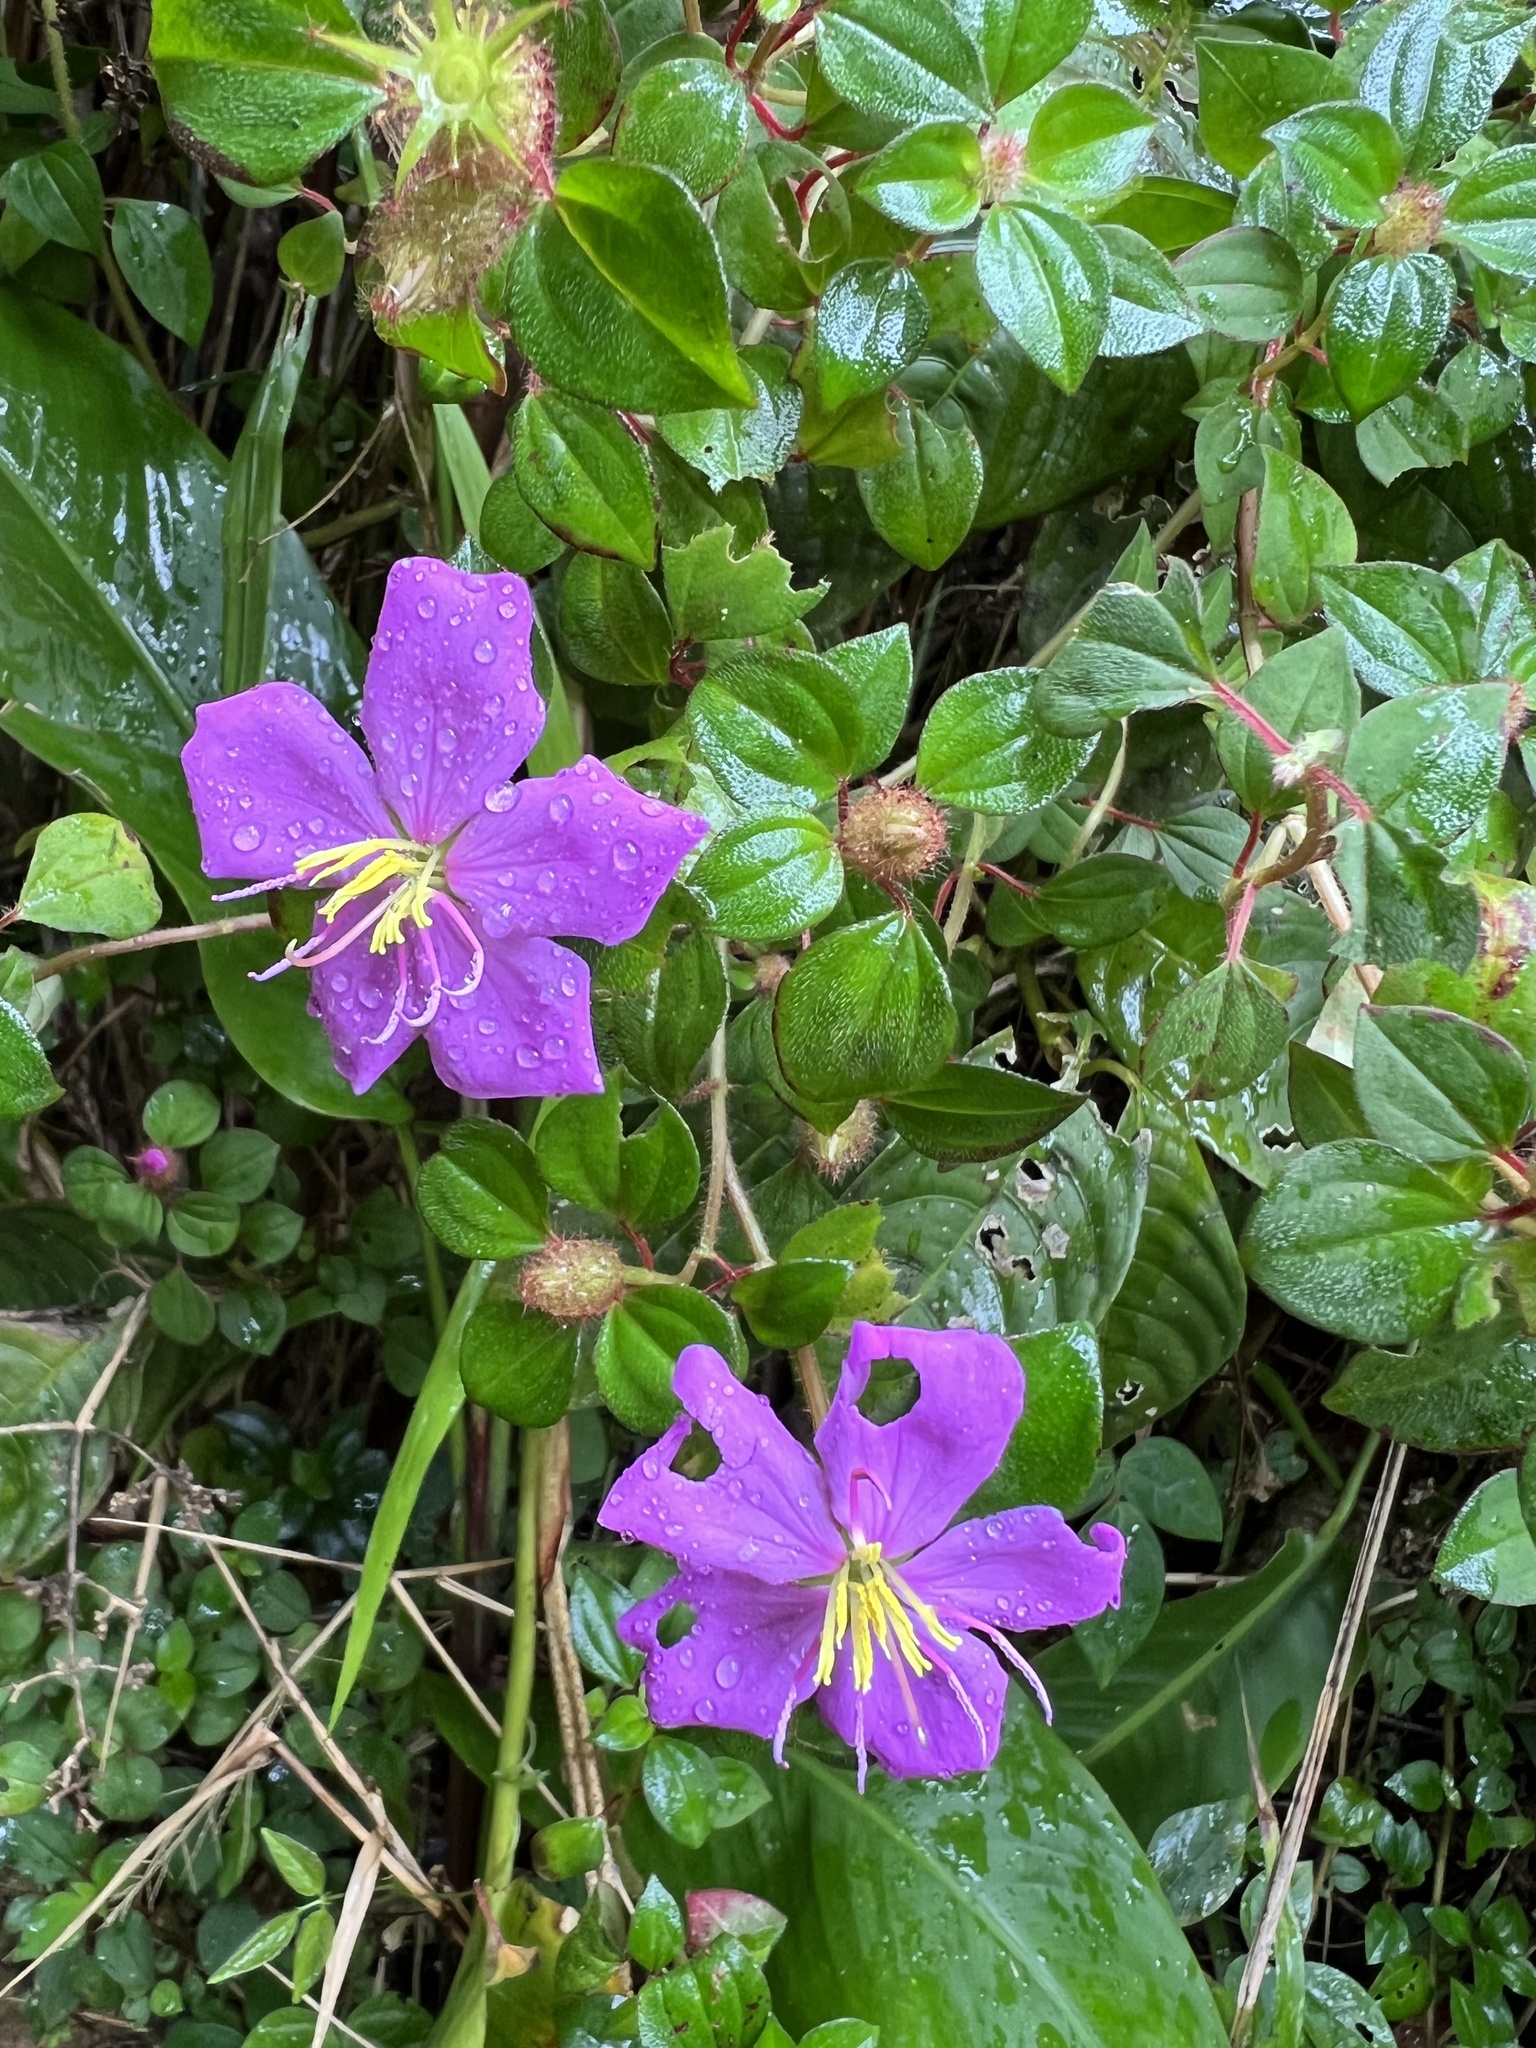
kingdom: Plantae
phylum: Tracheophyta
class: Magnoliopsida
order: Myrtales
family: Melastomataceae
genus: Heterotis
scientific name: Heterotis rotundifolia
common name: Pinklady
